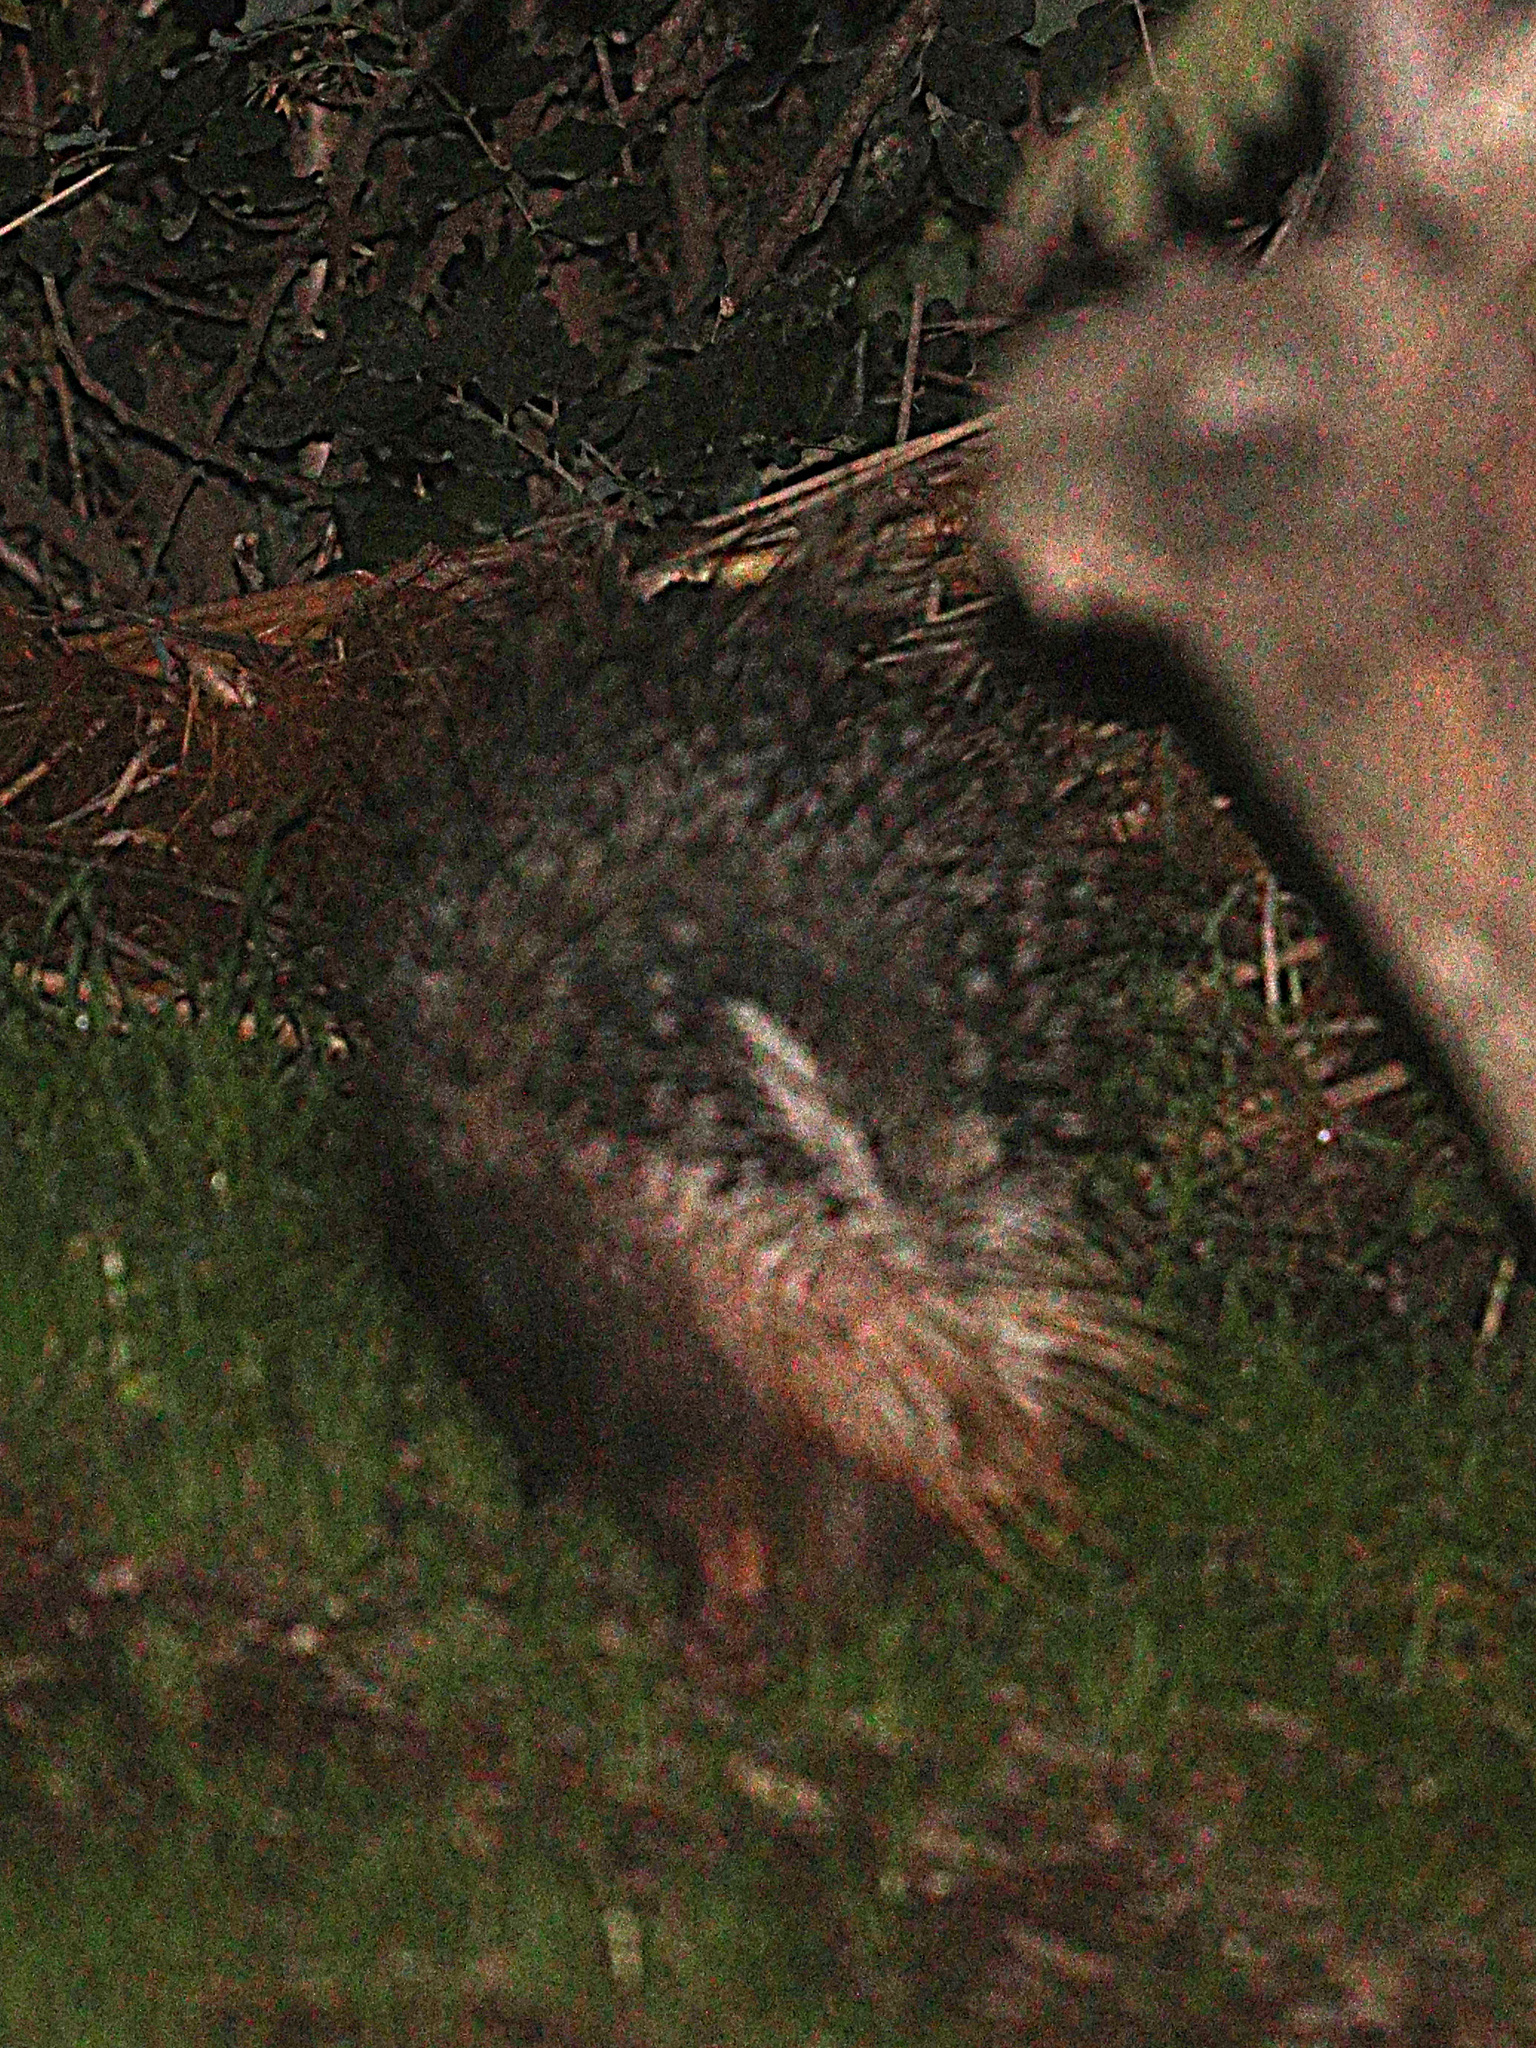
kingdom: Animalia
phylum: Chordata
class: Mammalia
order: Rodentia
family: Hystricidae
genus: Hystrix
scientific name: Hystrix indica
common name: Indian crested porcupine
